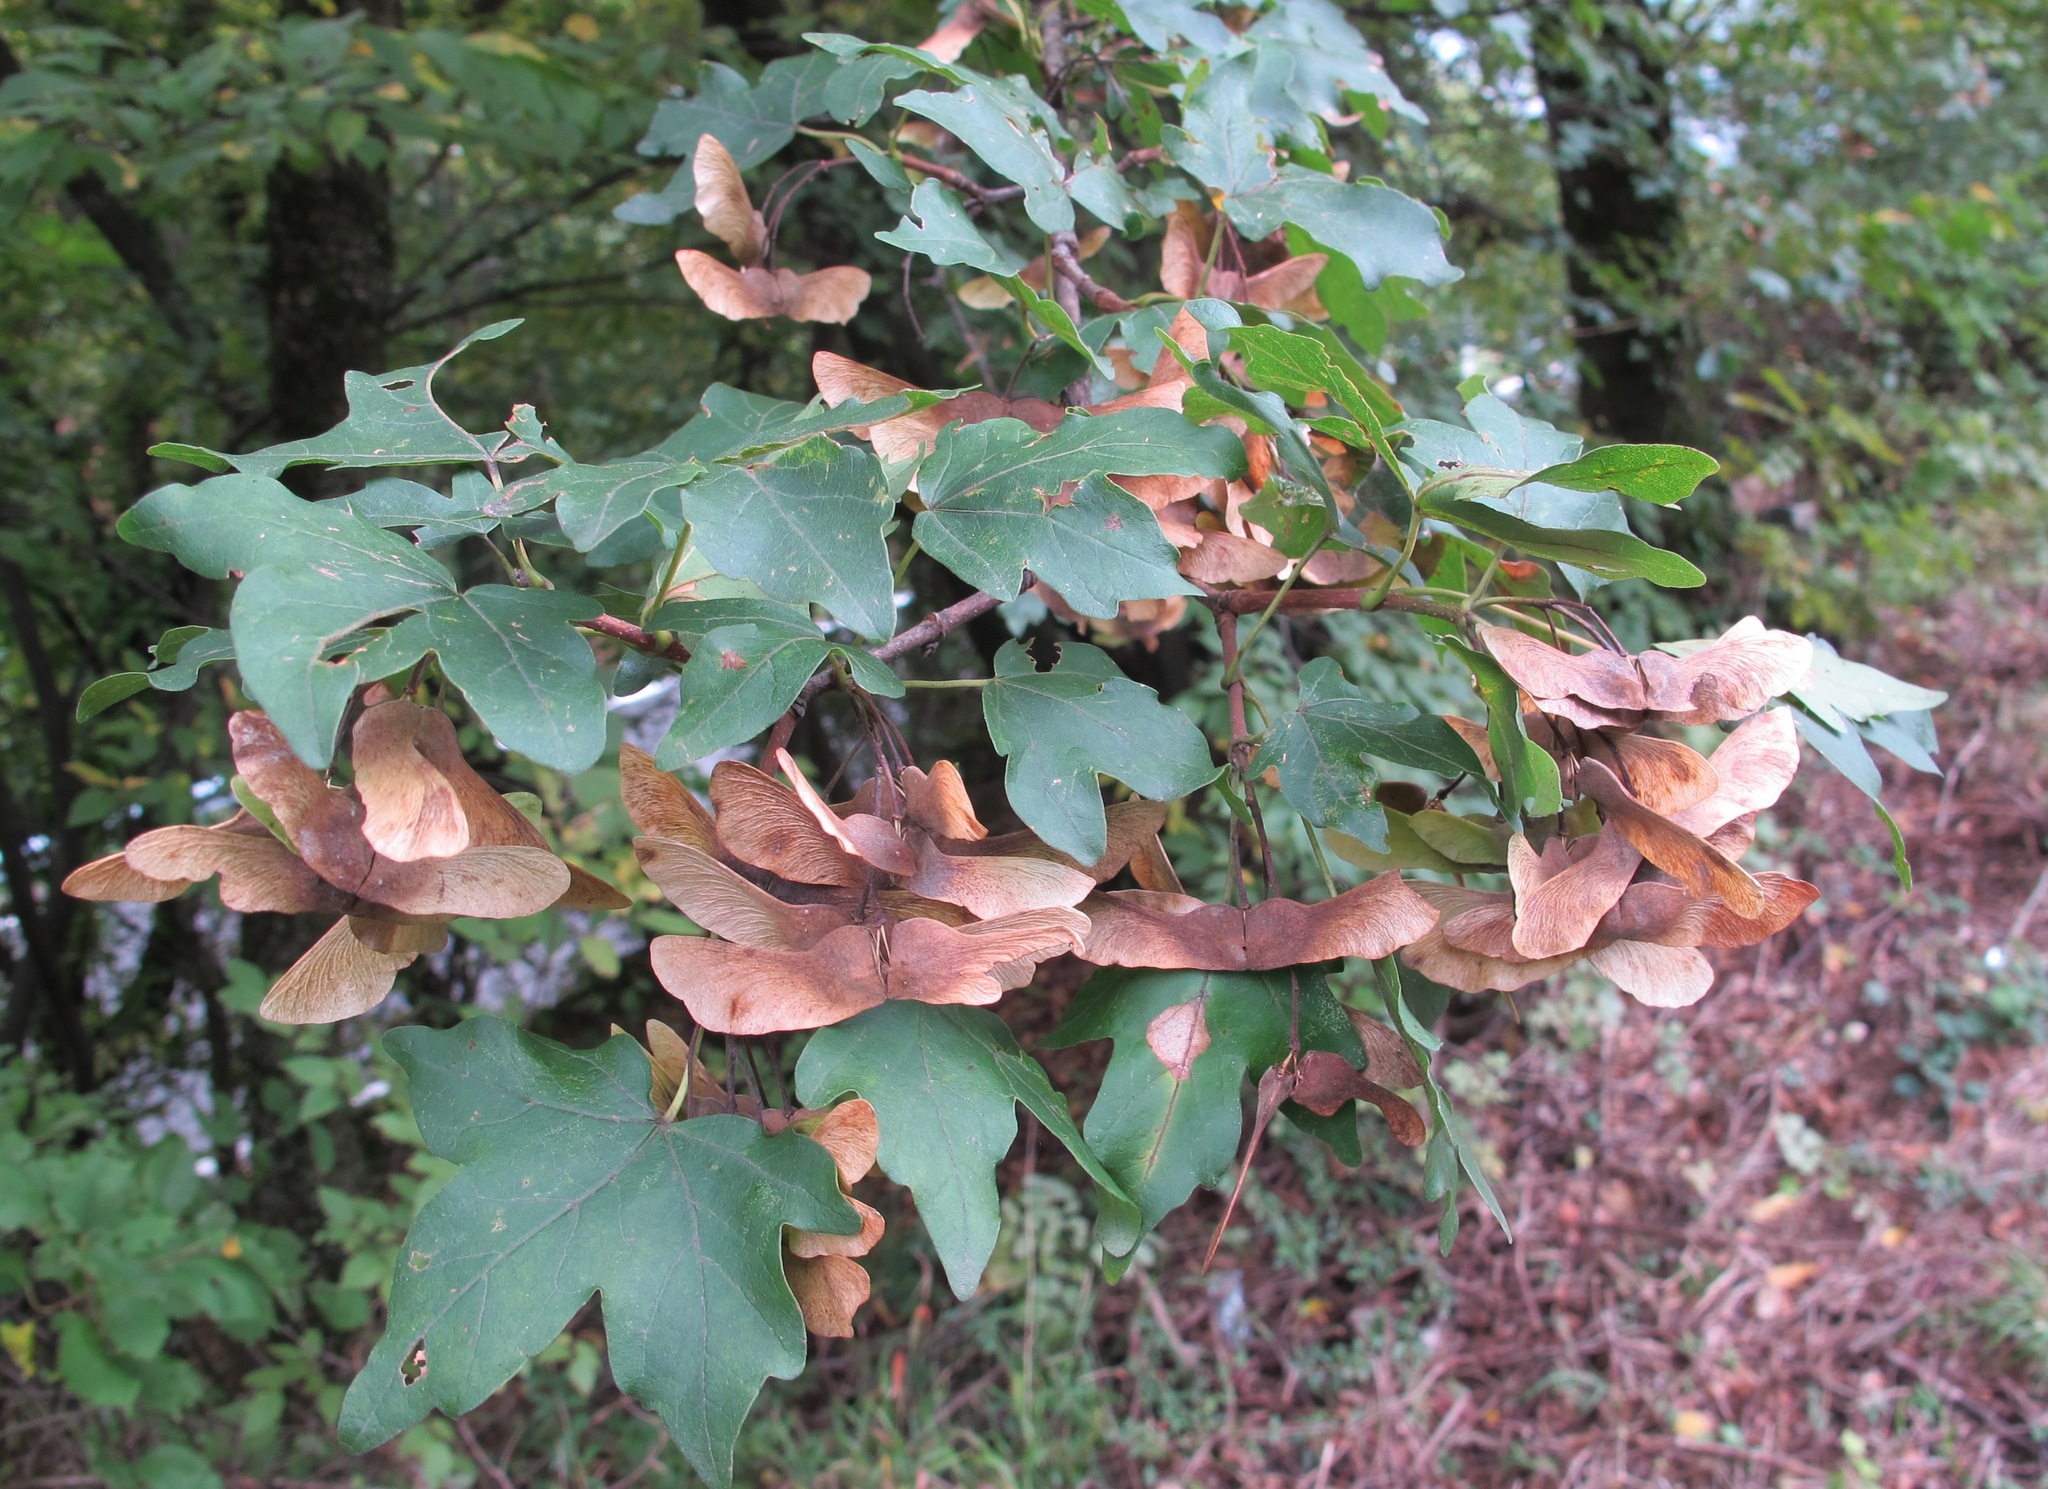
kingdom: Plantae
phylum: Tracheophyta
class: Magnoliopsida
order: Sapindales
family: Sapindaceae
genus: Acer
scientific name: Acer campestre
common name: Field maple
